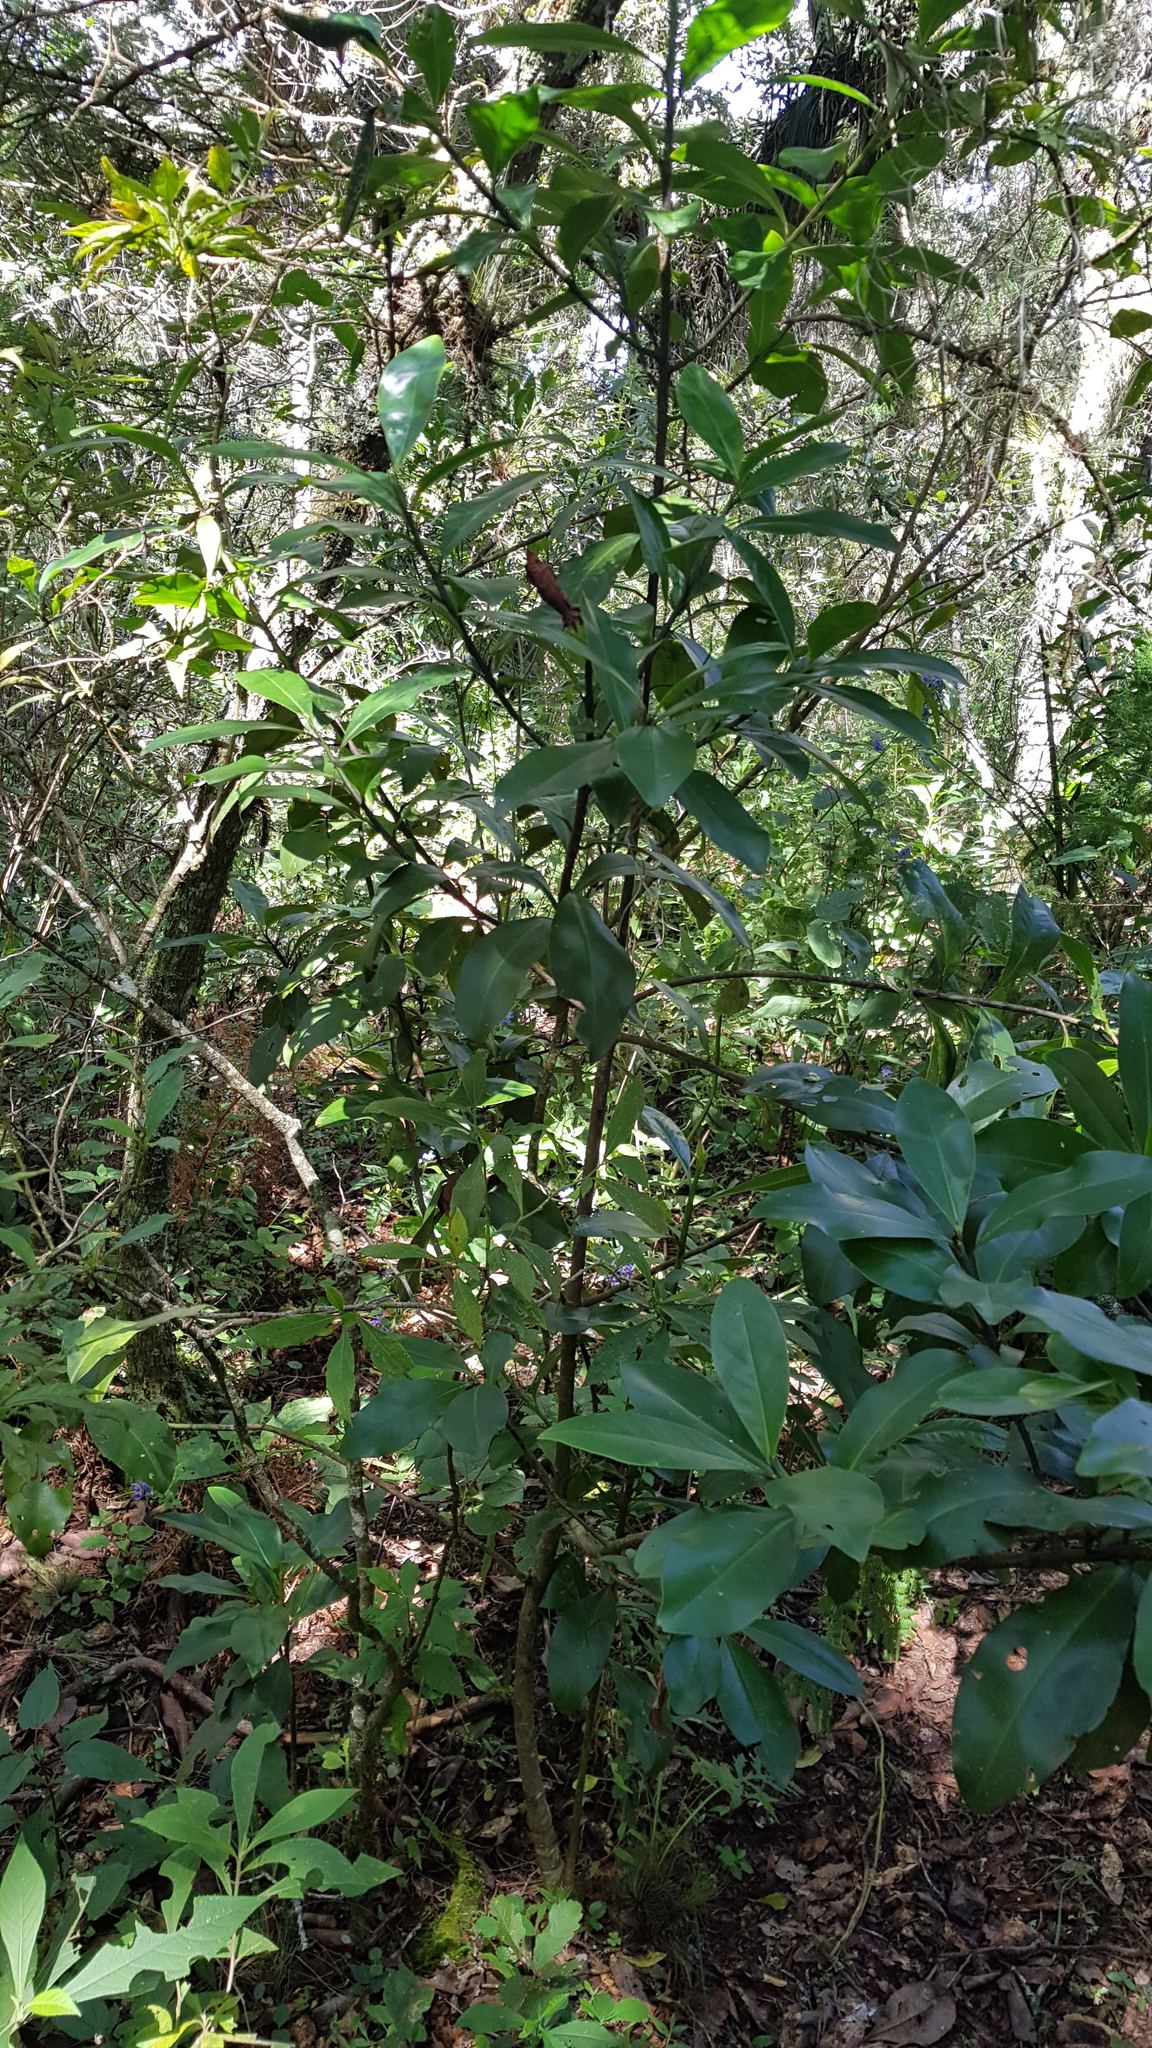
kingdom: Plantae
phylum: Tracheophyta
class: Magnoliopsida
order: Ericales
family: Primulaceae
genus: Myrsine
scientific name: Myrsine juergensenii
